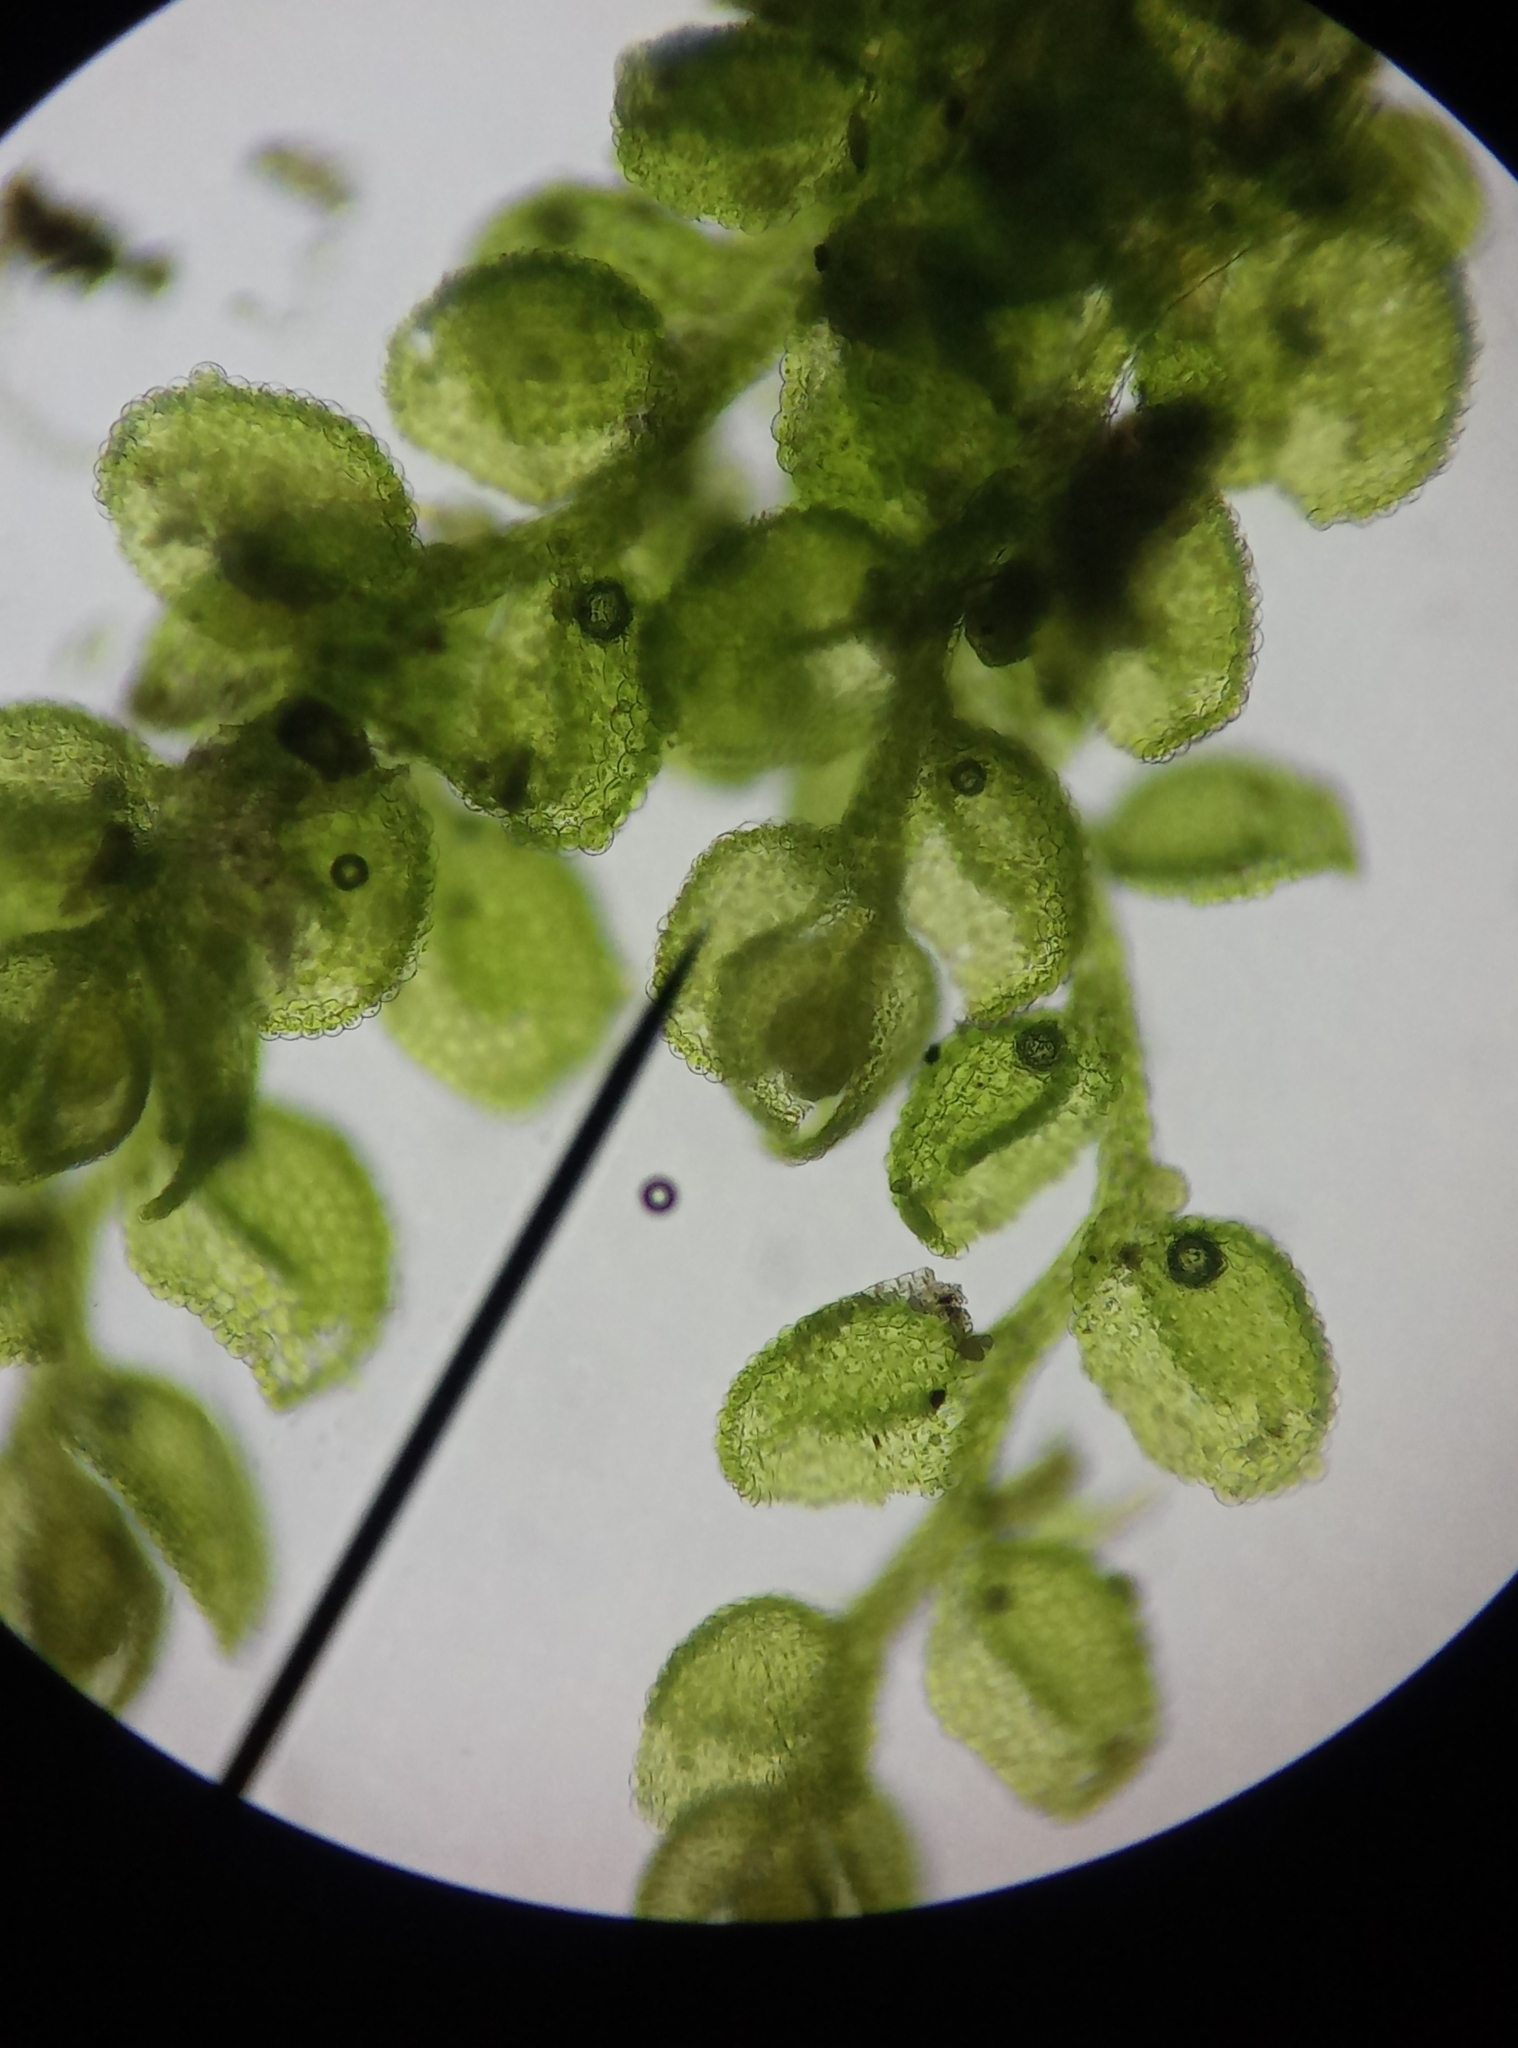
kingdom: Plantae
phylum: Marchantiophyta
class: Jungermanniopsida
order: Porellales
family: Lejeuneaceae
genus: Myriocoleopsis
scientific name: Myriocoleopsis minutissima
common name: Minute pouncewort
